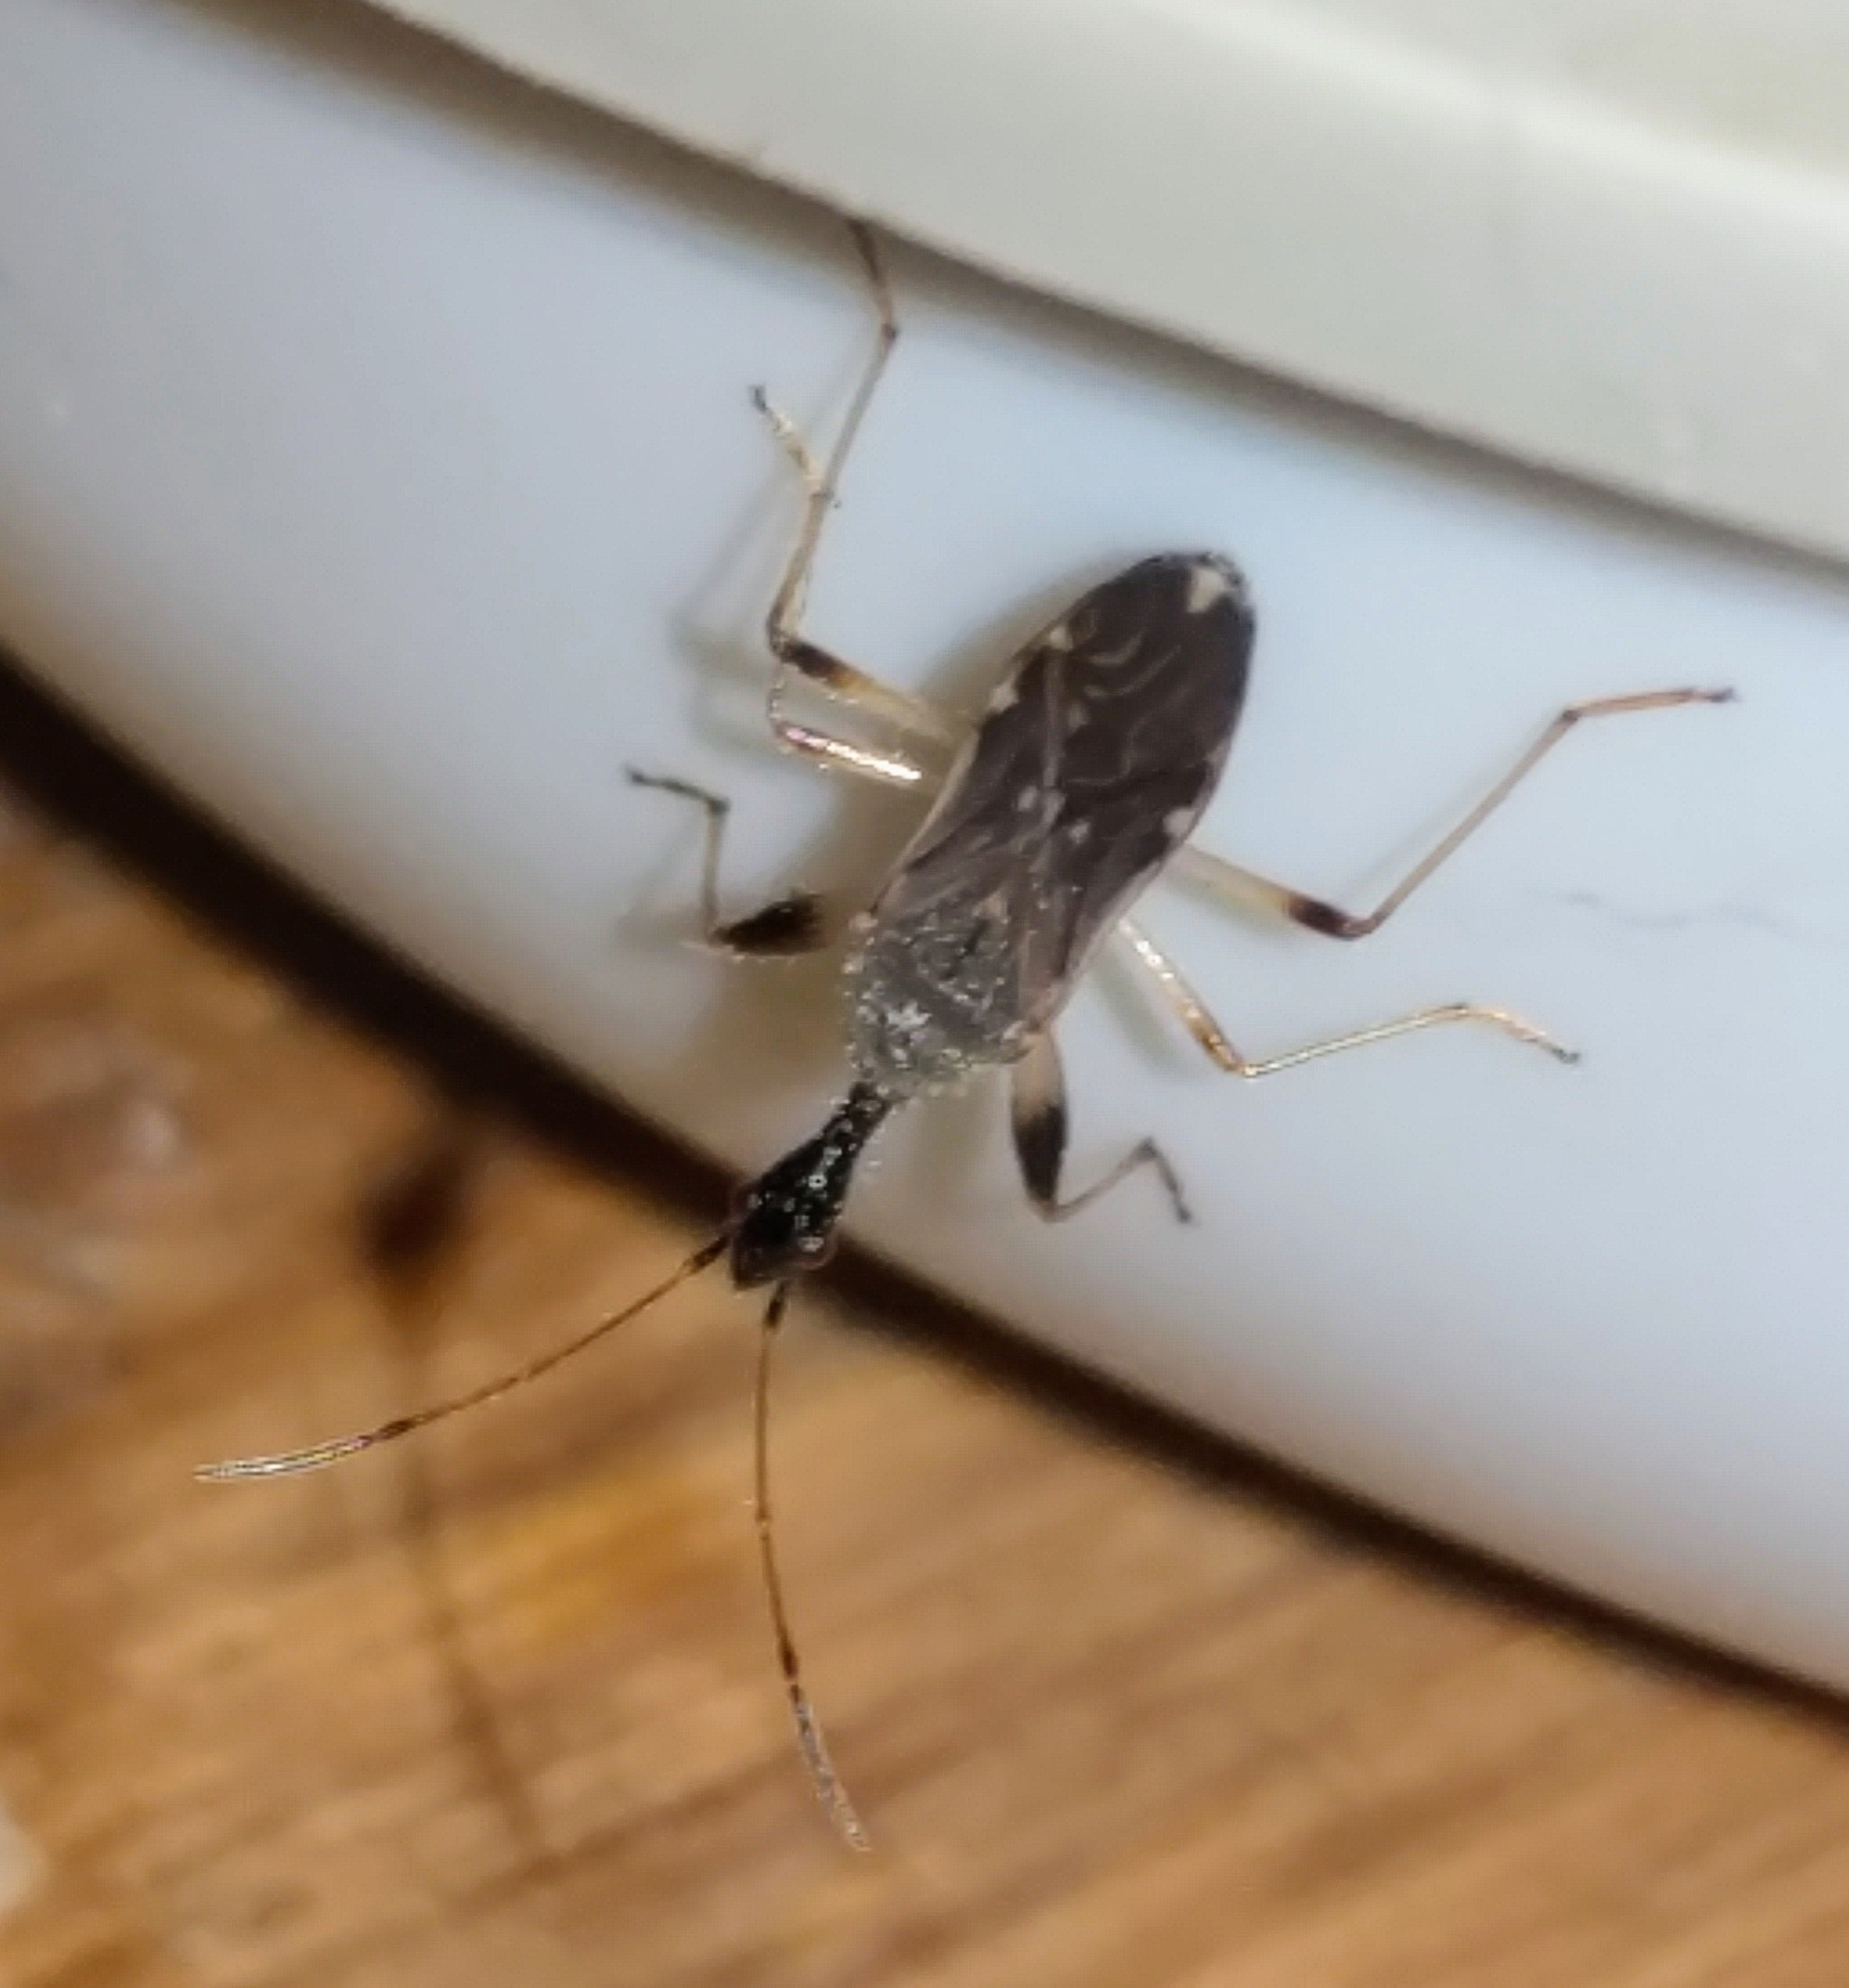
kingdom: Animalia
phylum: Arthropoda
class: Insecta
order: Hemiptera
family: Rhyparochromidae
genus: Myodocha
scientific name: Myodocha serripes
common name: Long-necked seed bug
